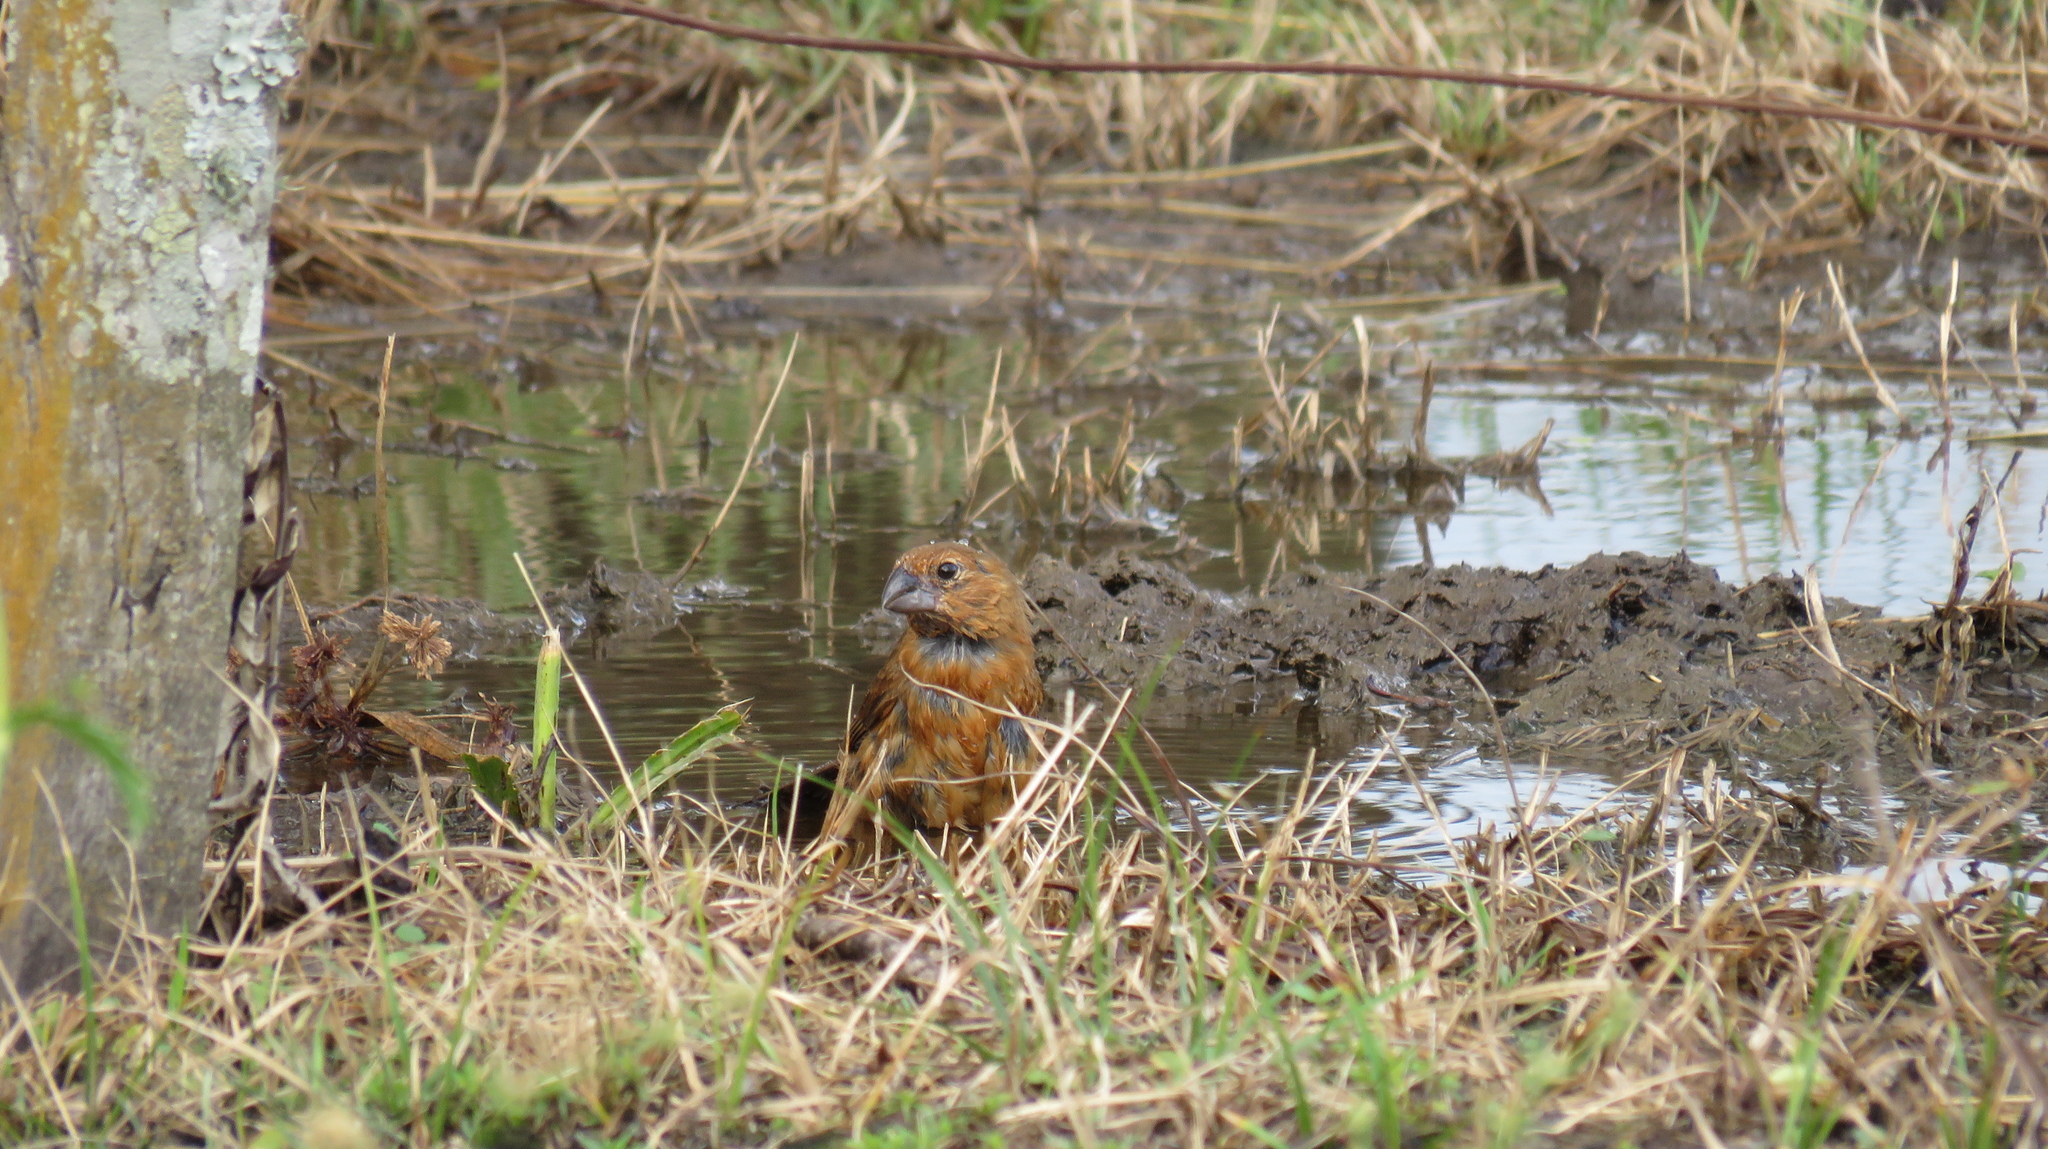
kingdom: Animalia
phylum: Chordata
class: Aves
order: Passeriformes
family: Cardinalidae
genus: Cyanoloxia
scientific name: Cyanoloxia brissonii
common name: Ultramarine grosbeak
